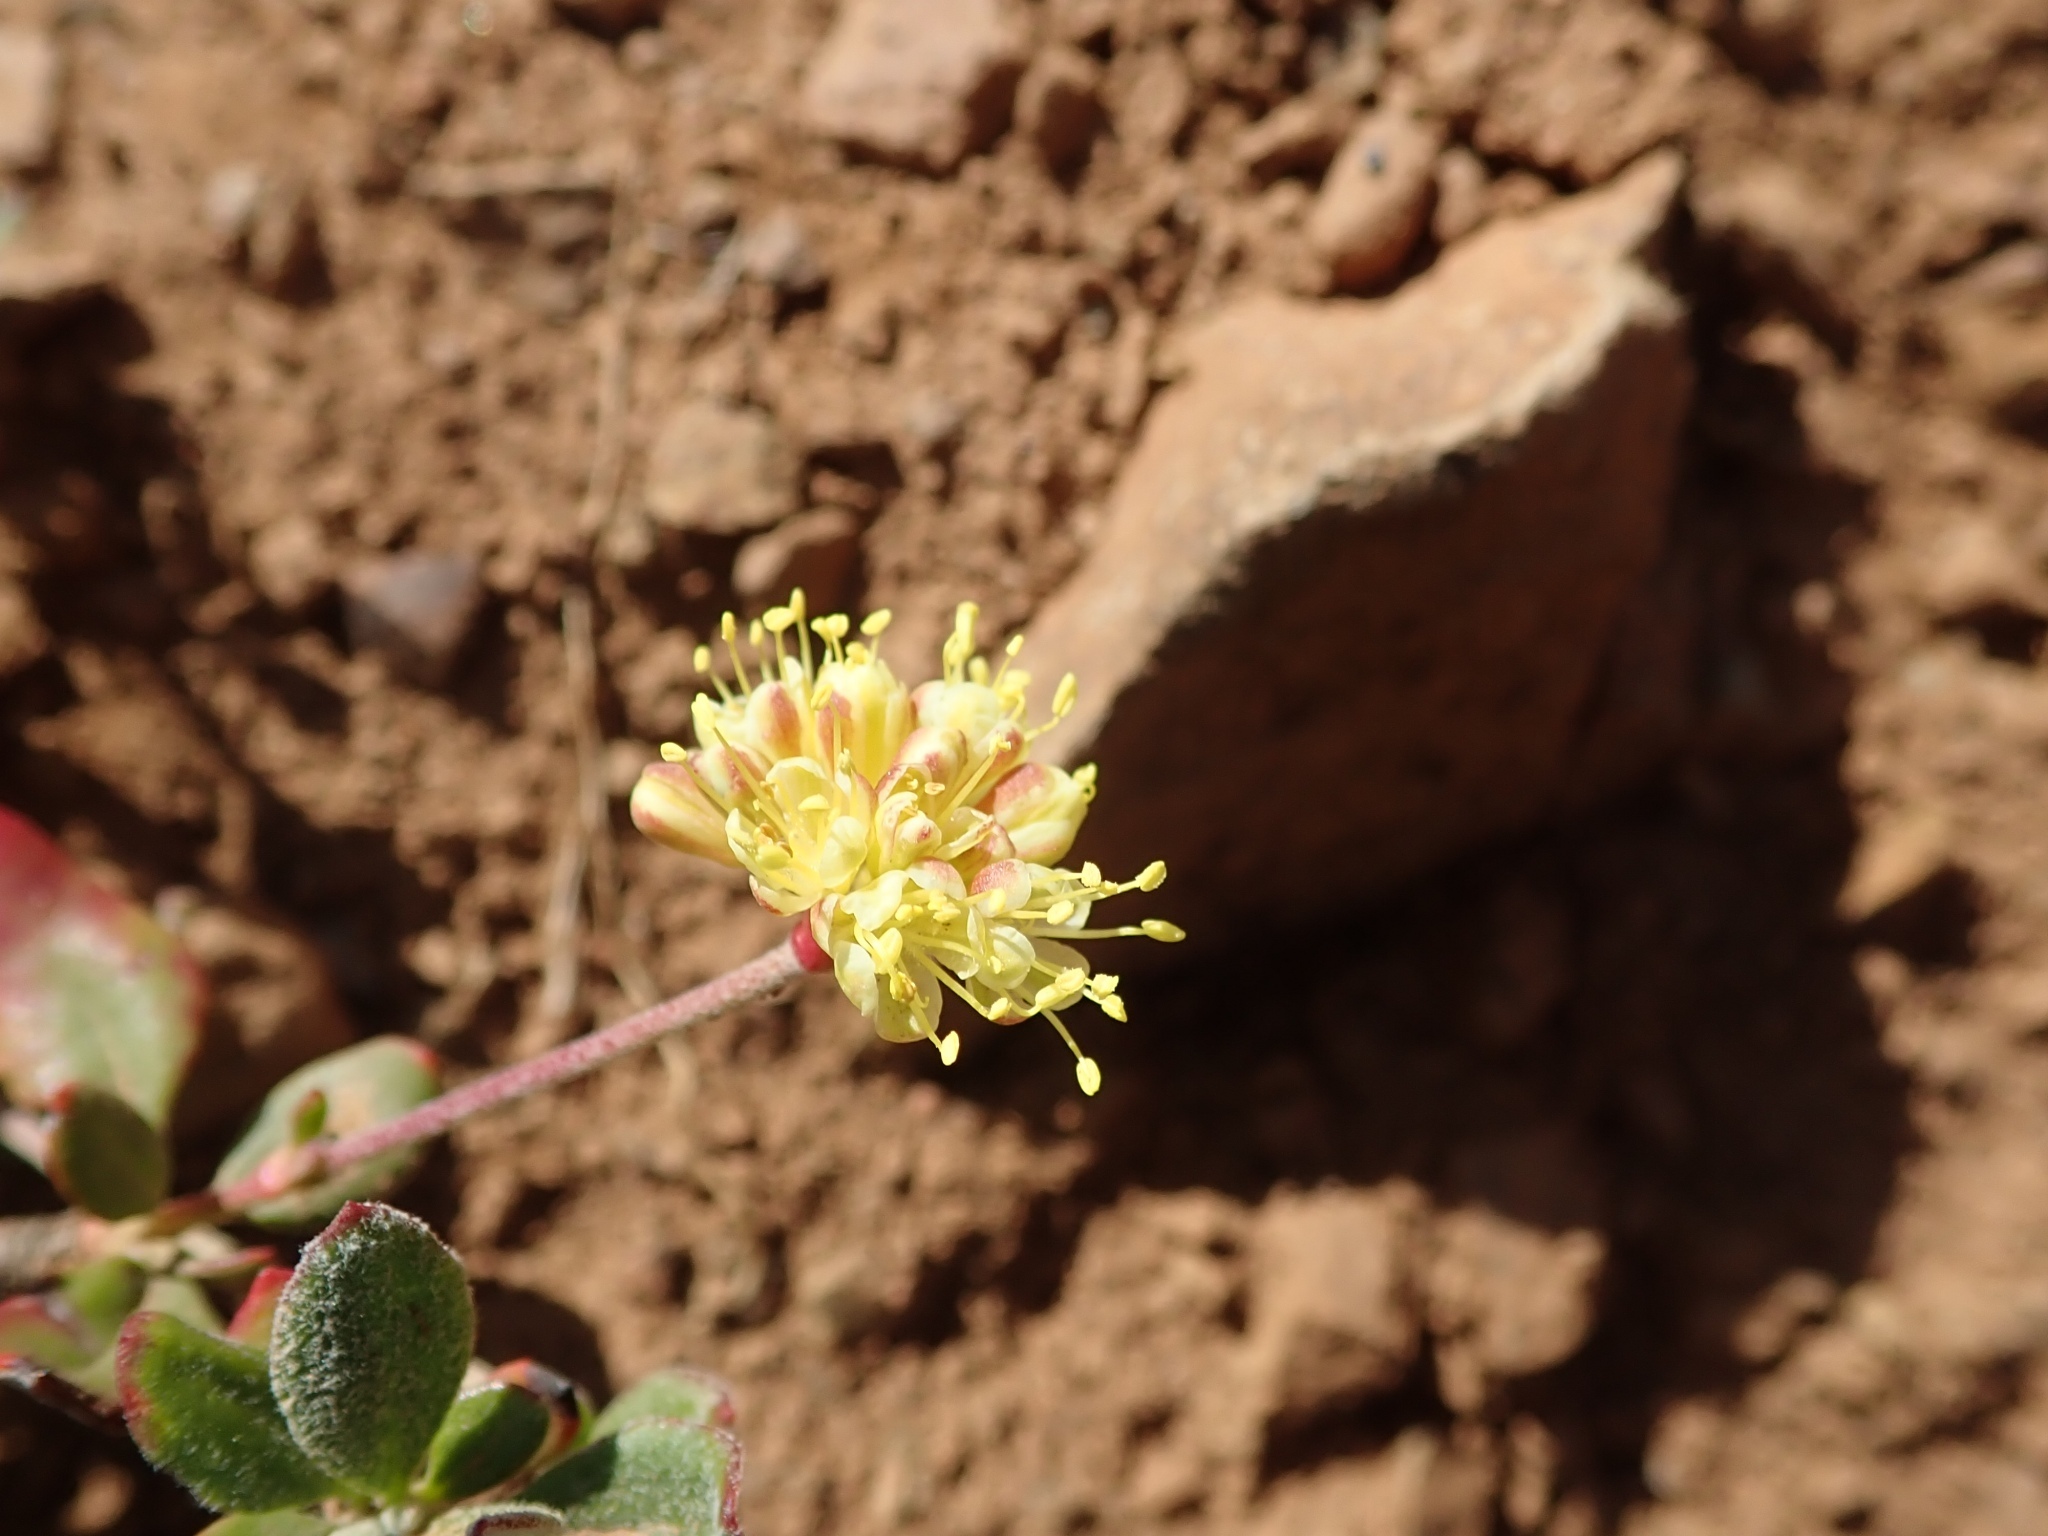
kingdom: Plantae
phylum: Tracheophyta
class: Magnoliopsida
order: Caryophyllales
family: Polygonaceae
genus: Eriogonum
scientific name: Eriogonum umbellatum
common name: Sulfur-buckwheat
